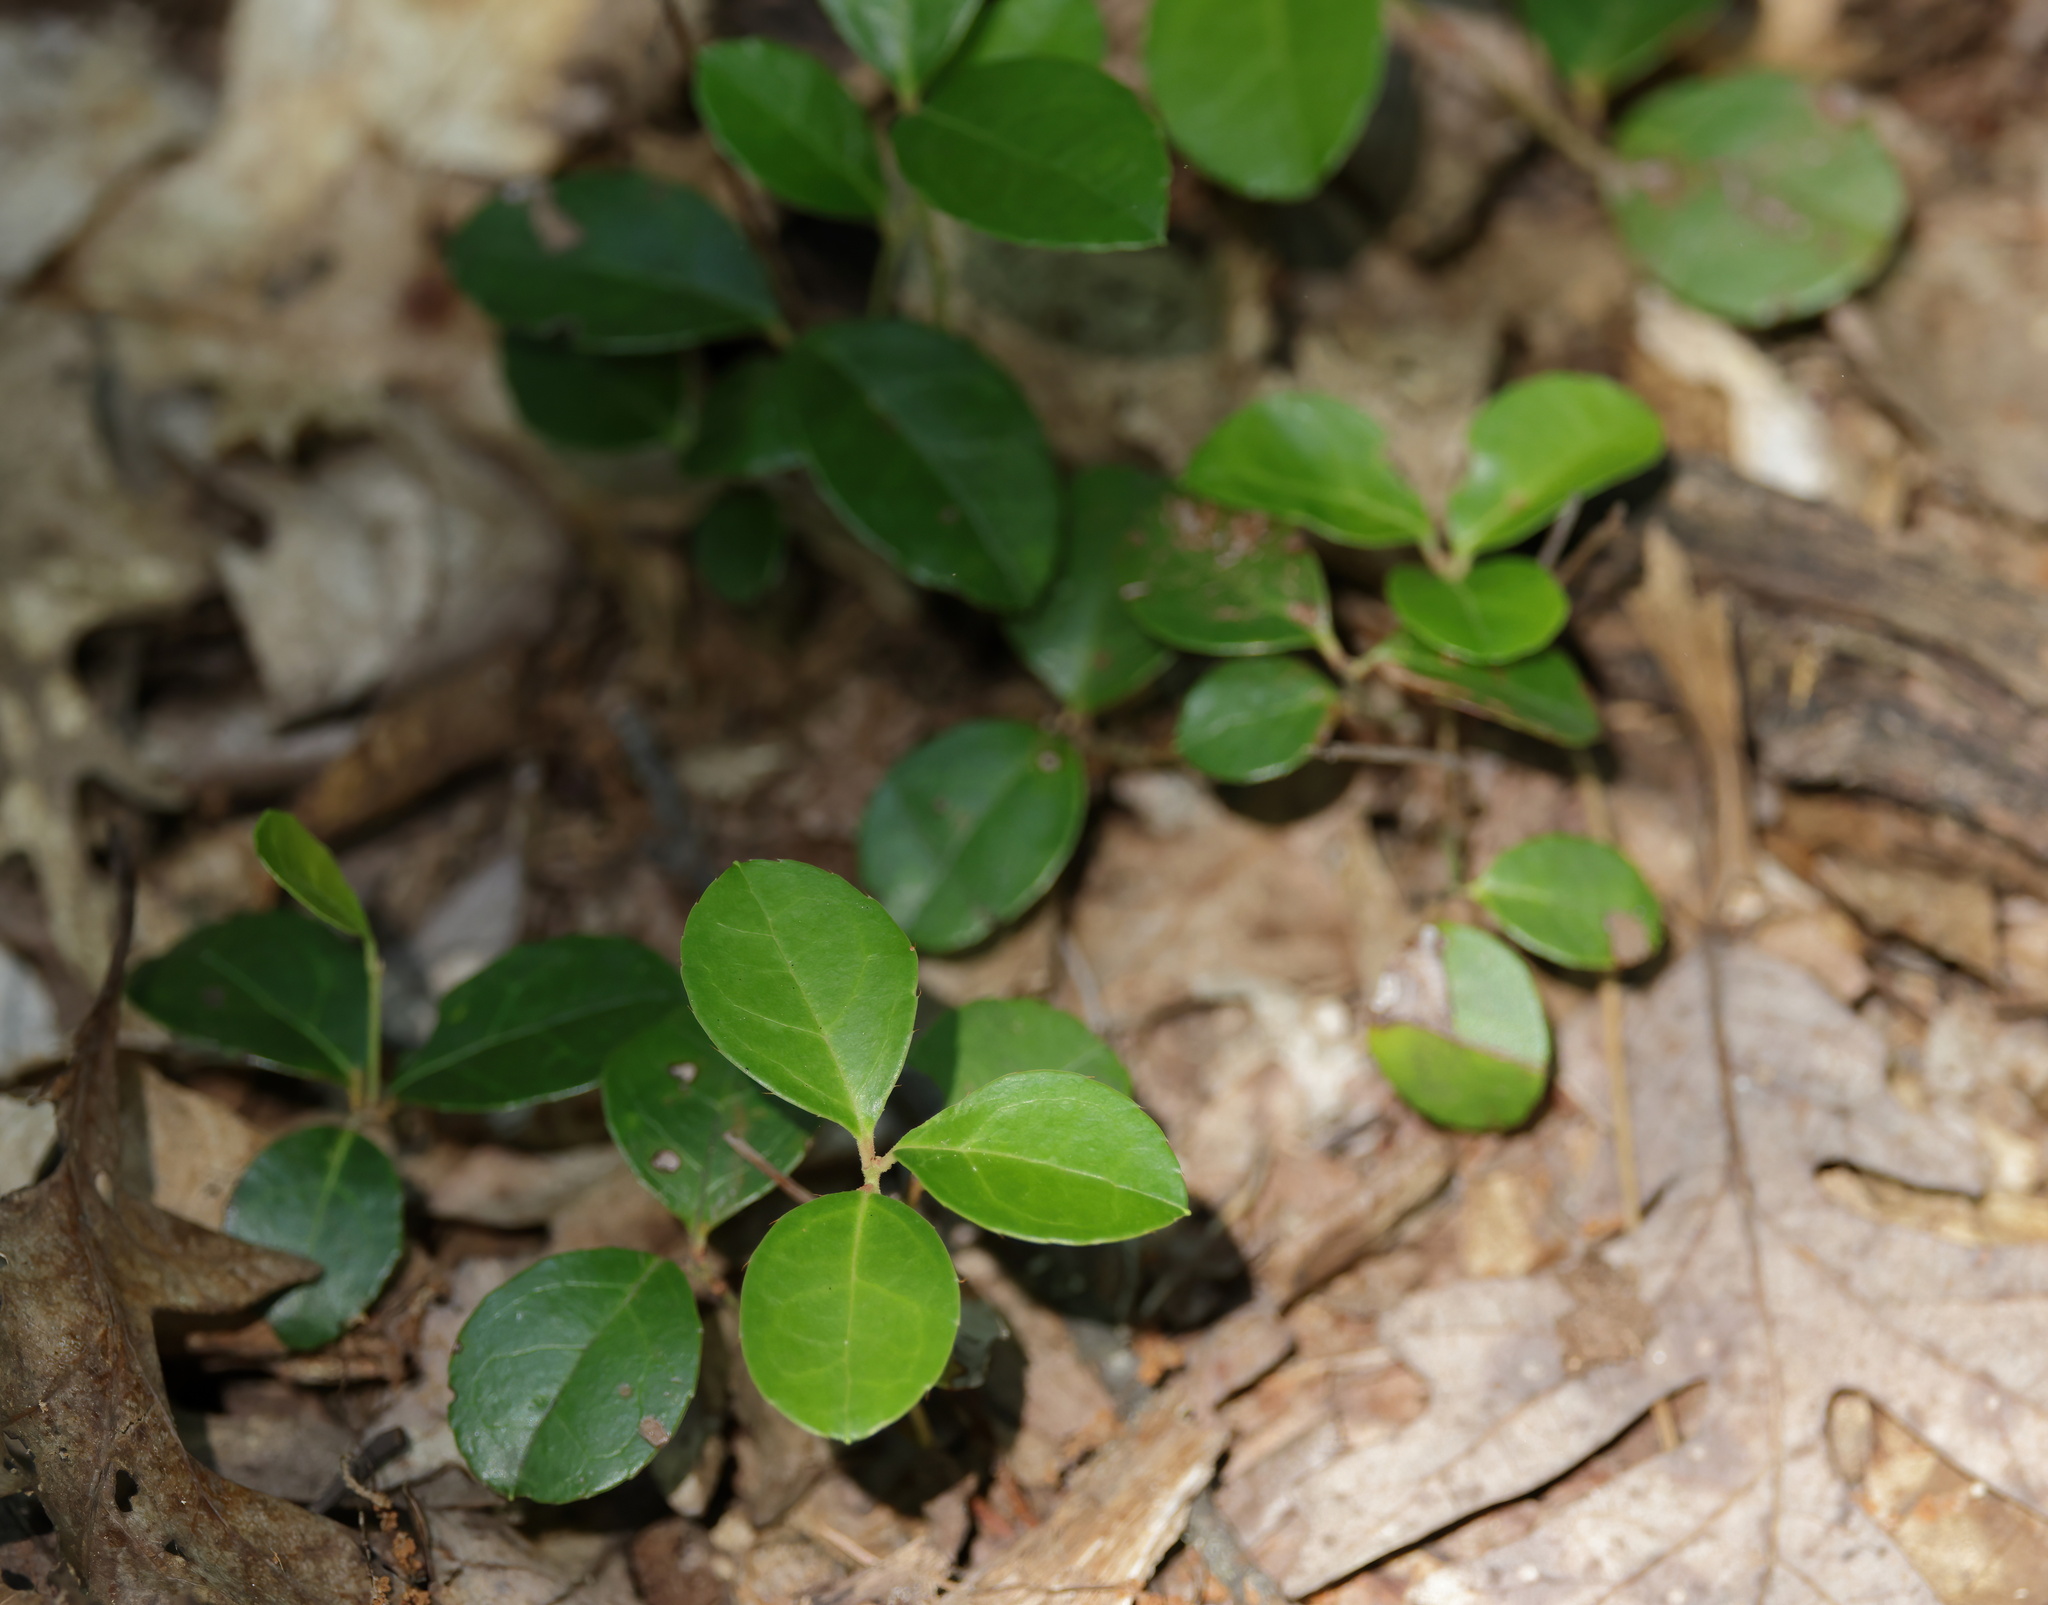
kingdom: Plantae
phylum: Tracheophyta
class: Magnoliopsida
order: Ericales
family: Ericaceae
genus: Gaultheria
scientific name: Gaultheria procumbens
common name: Checkerberry
